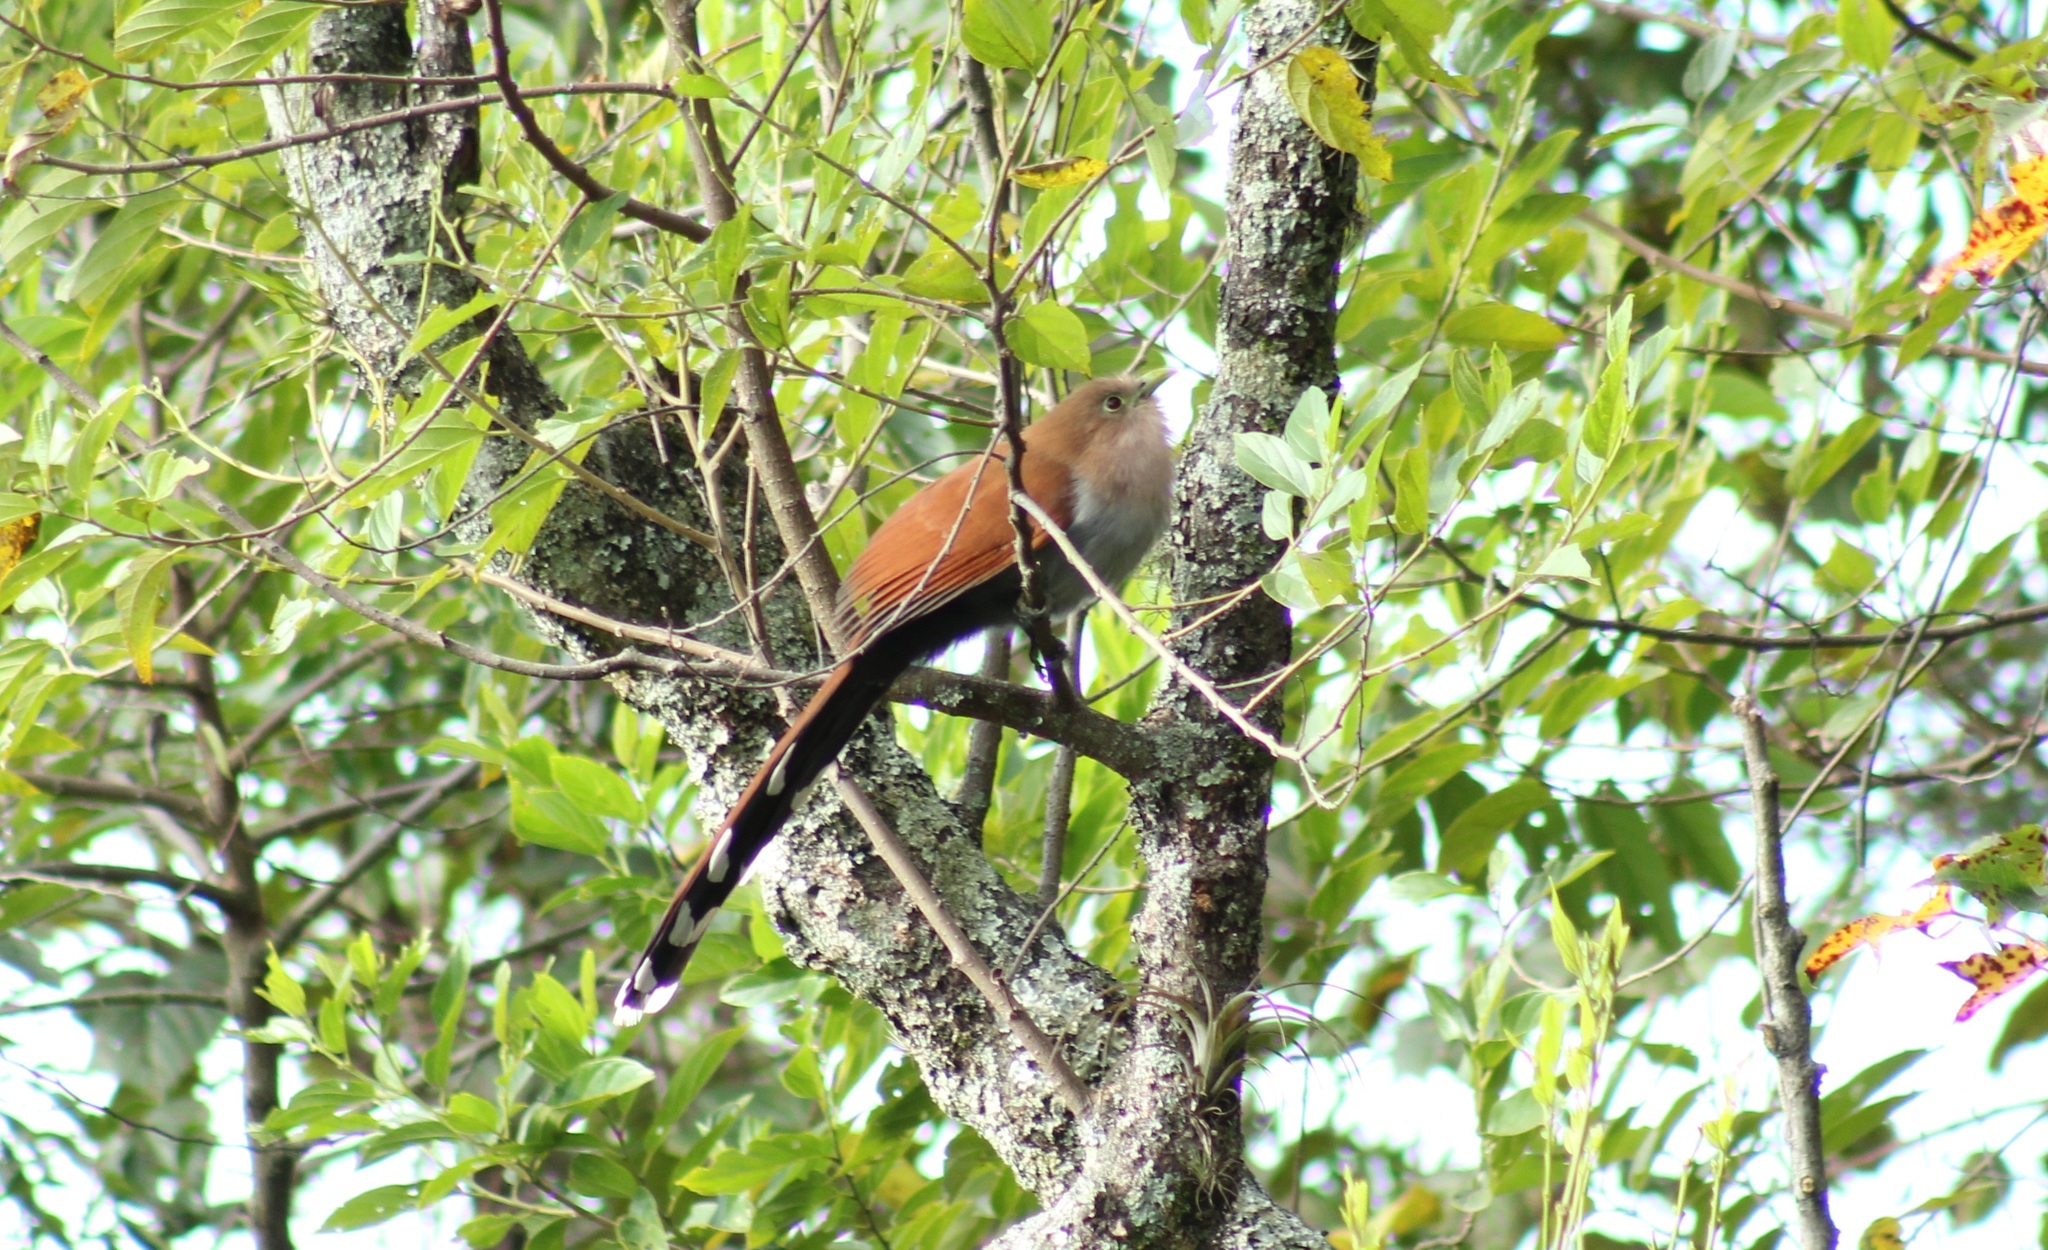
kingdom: Animalia
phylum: Chordata
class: Aves
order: Cuculiformes
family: Cuculidae
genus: Piaya
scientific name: Piaya cayana
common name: Squirrel cuckoo
